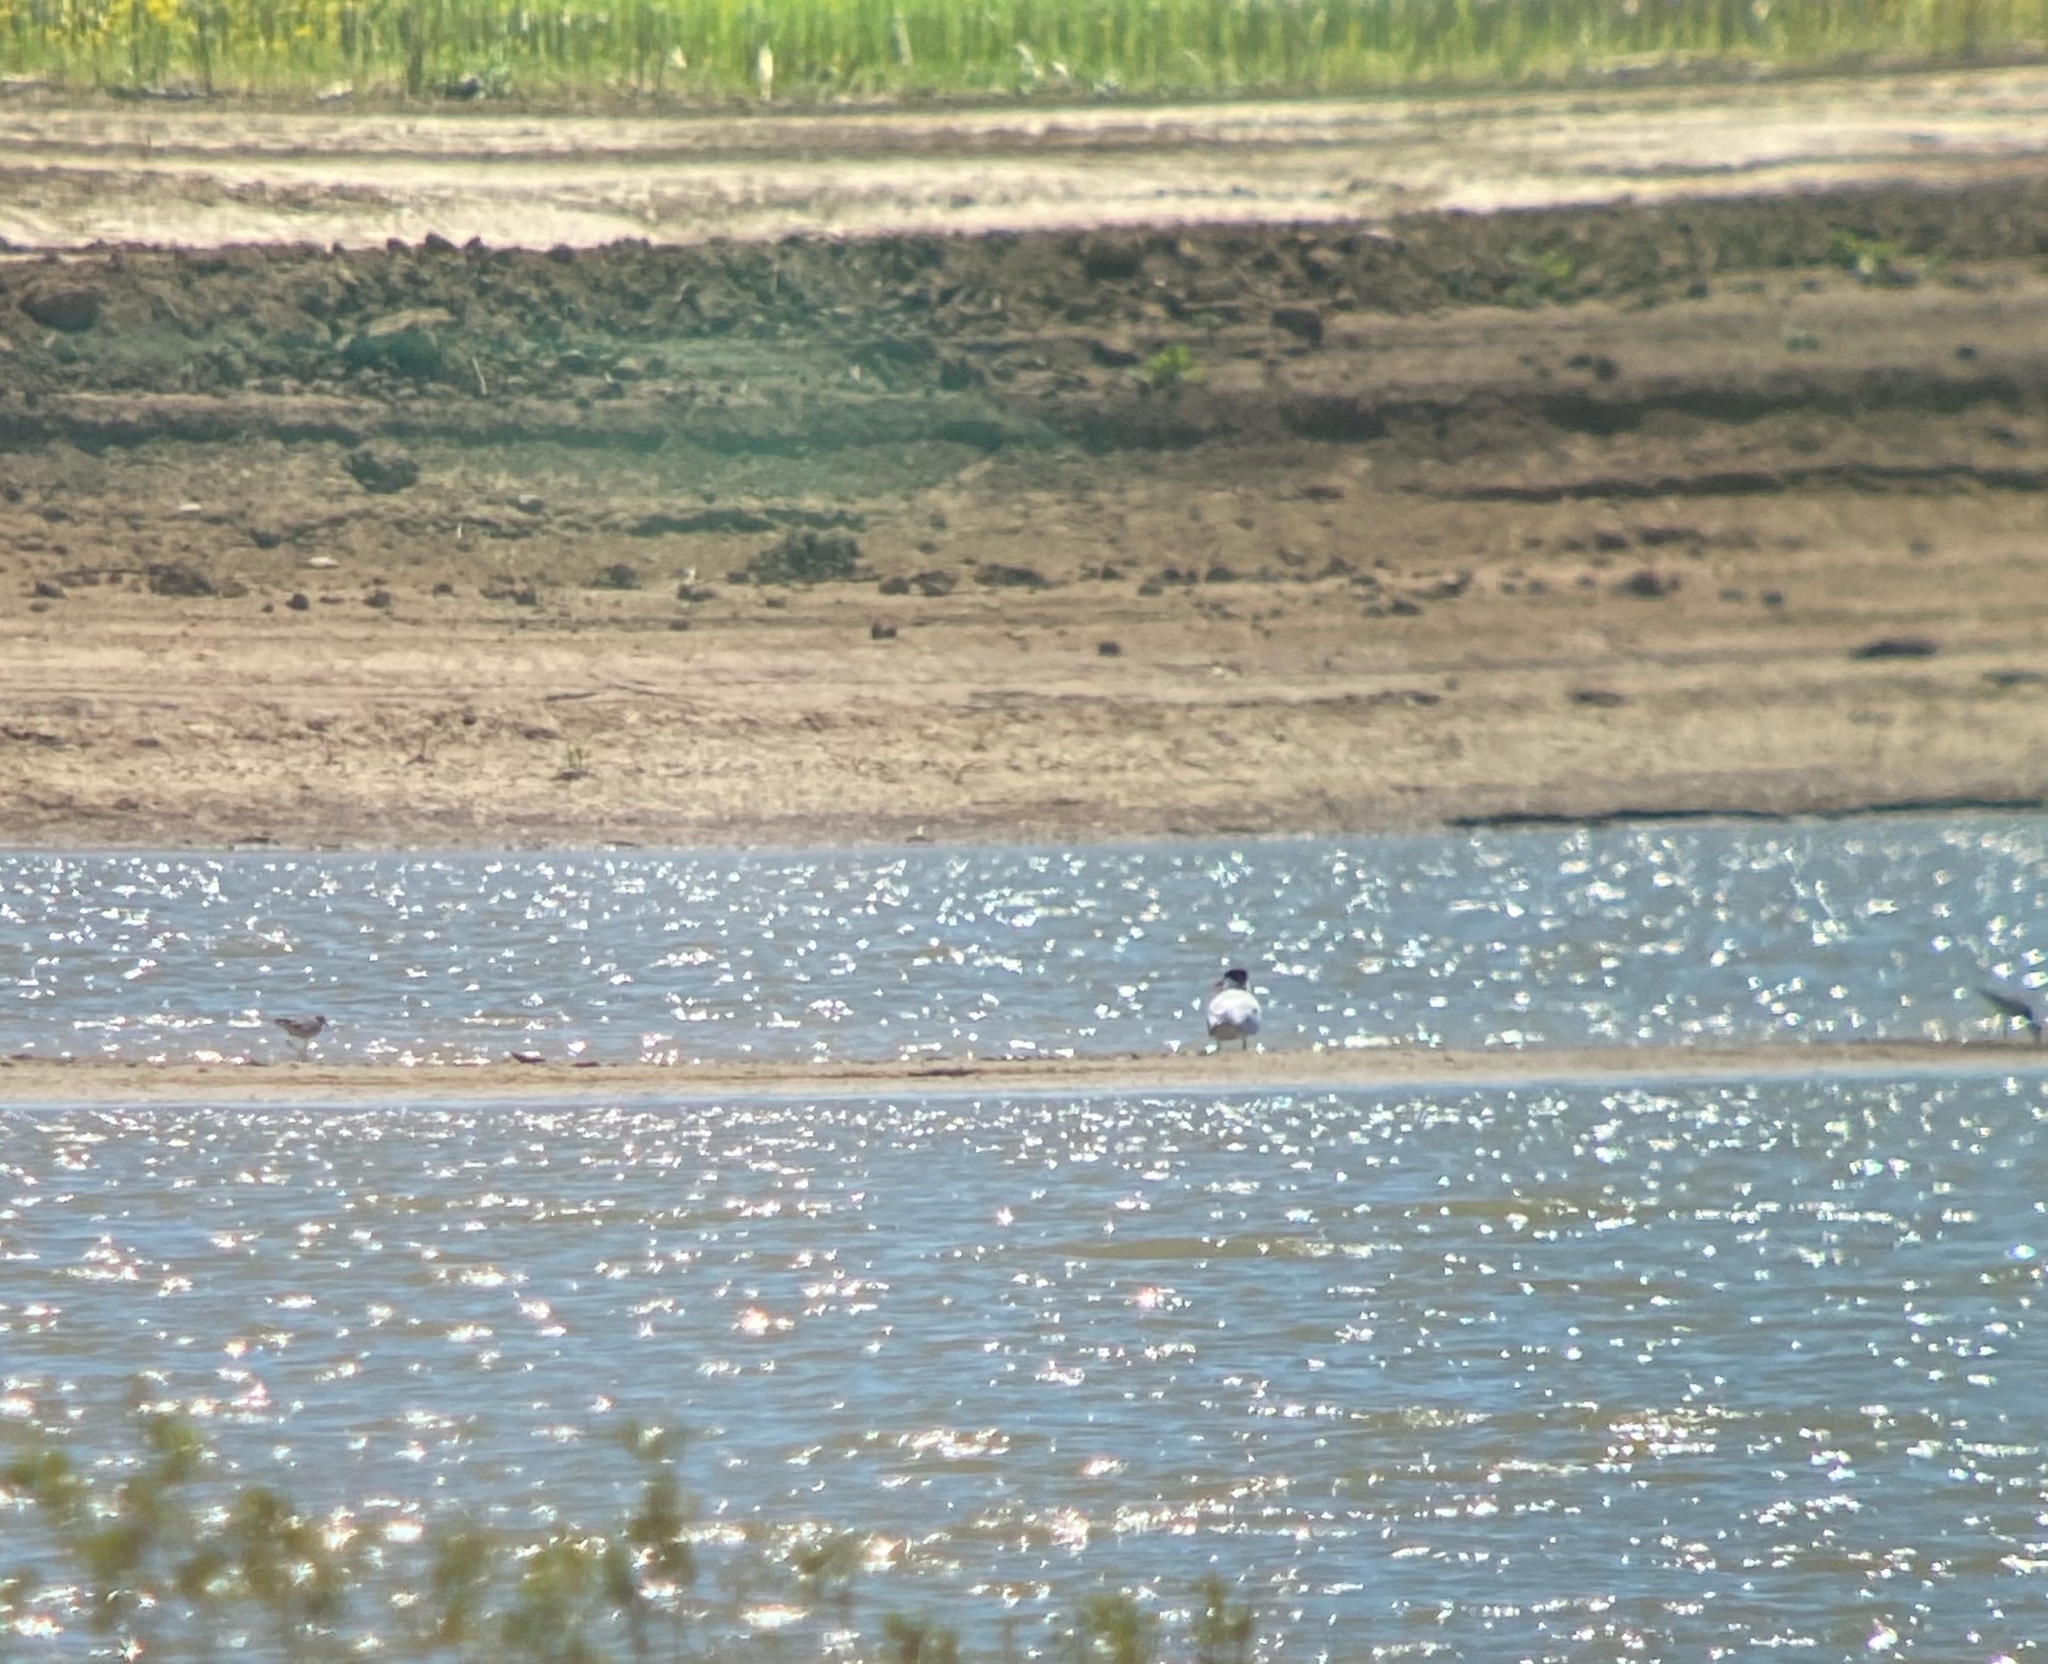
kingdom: Animalia
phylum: Chordata
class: Aves
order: Charadriiformes
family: Laridae
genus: Hydroprogne
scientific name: Hydroprogne caspia
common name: Caspian tern
